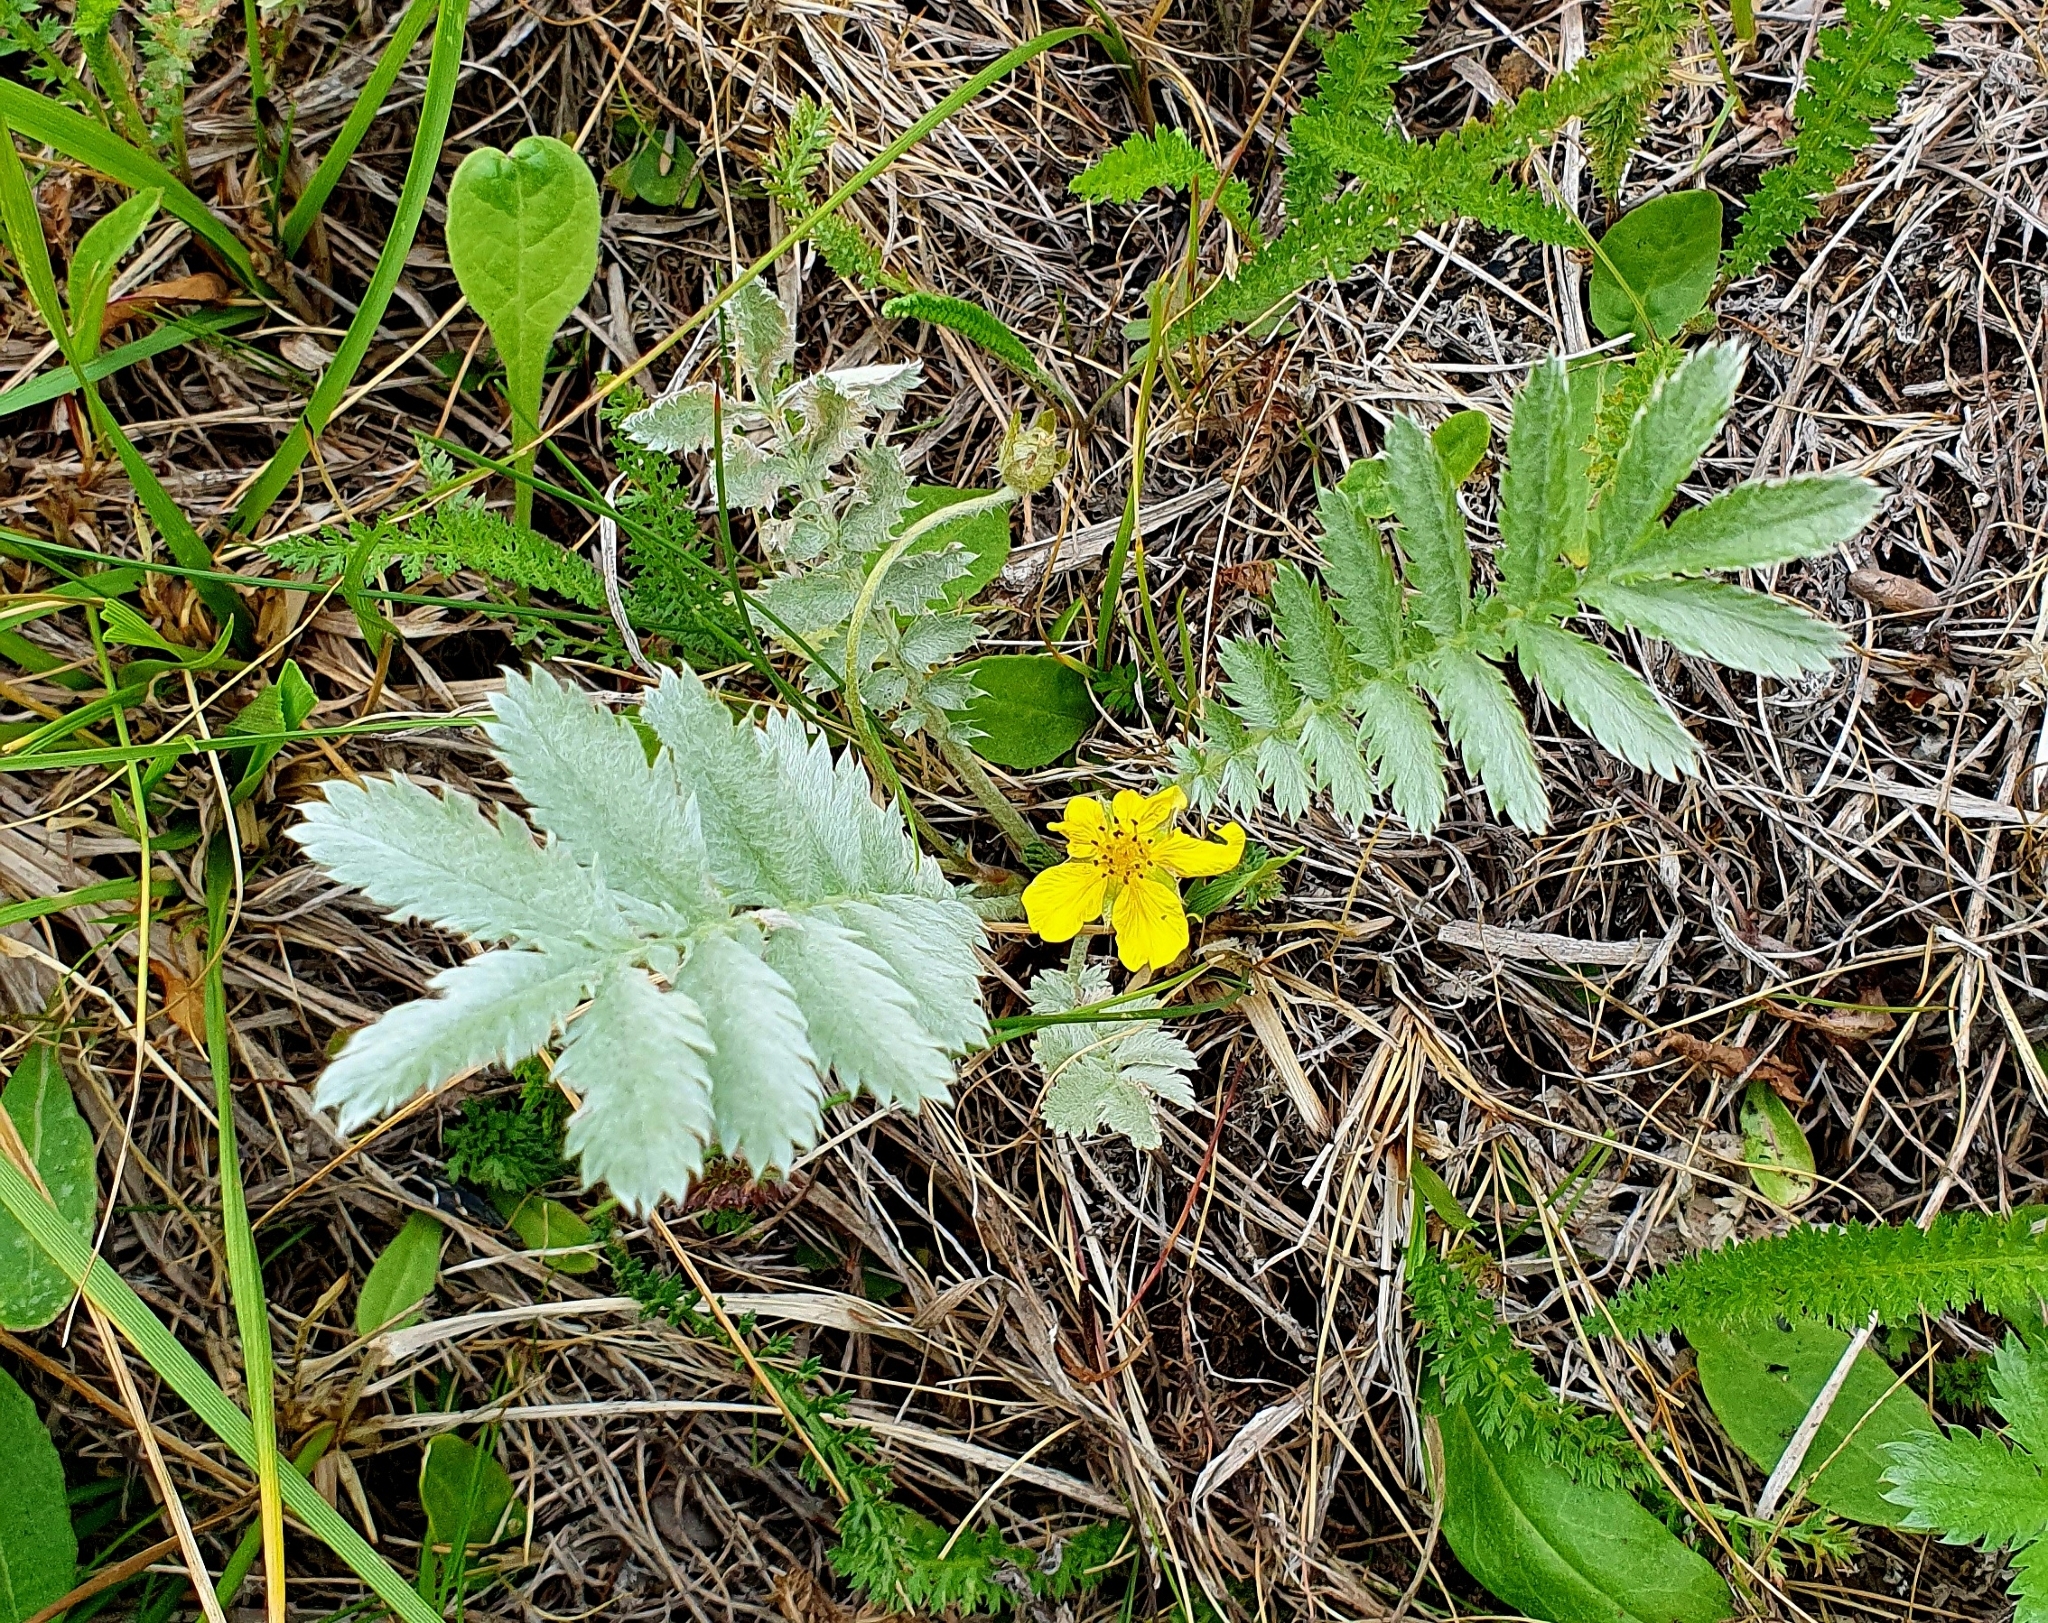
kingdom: Plantae
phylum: Tracheophyta
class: Magnoliopsida
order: Rosales
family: Rosaceae
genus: Argentina
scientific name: Argentina anserina
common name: Common silverweed
